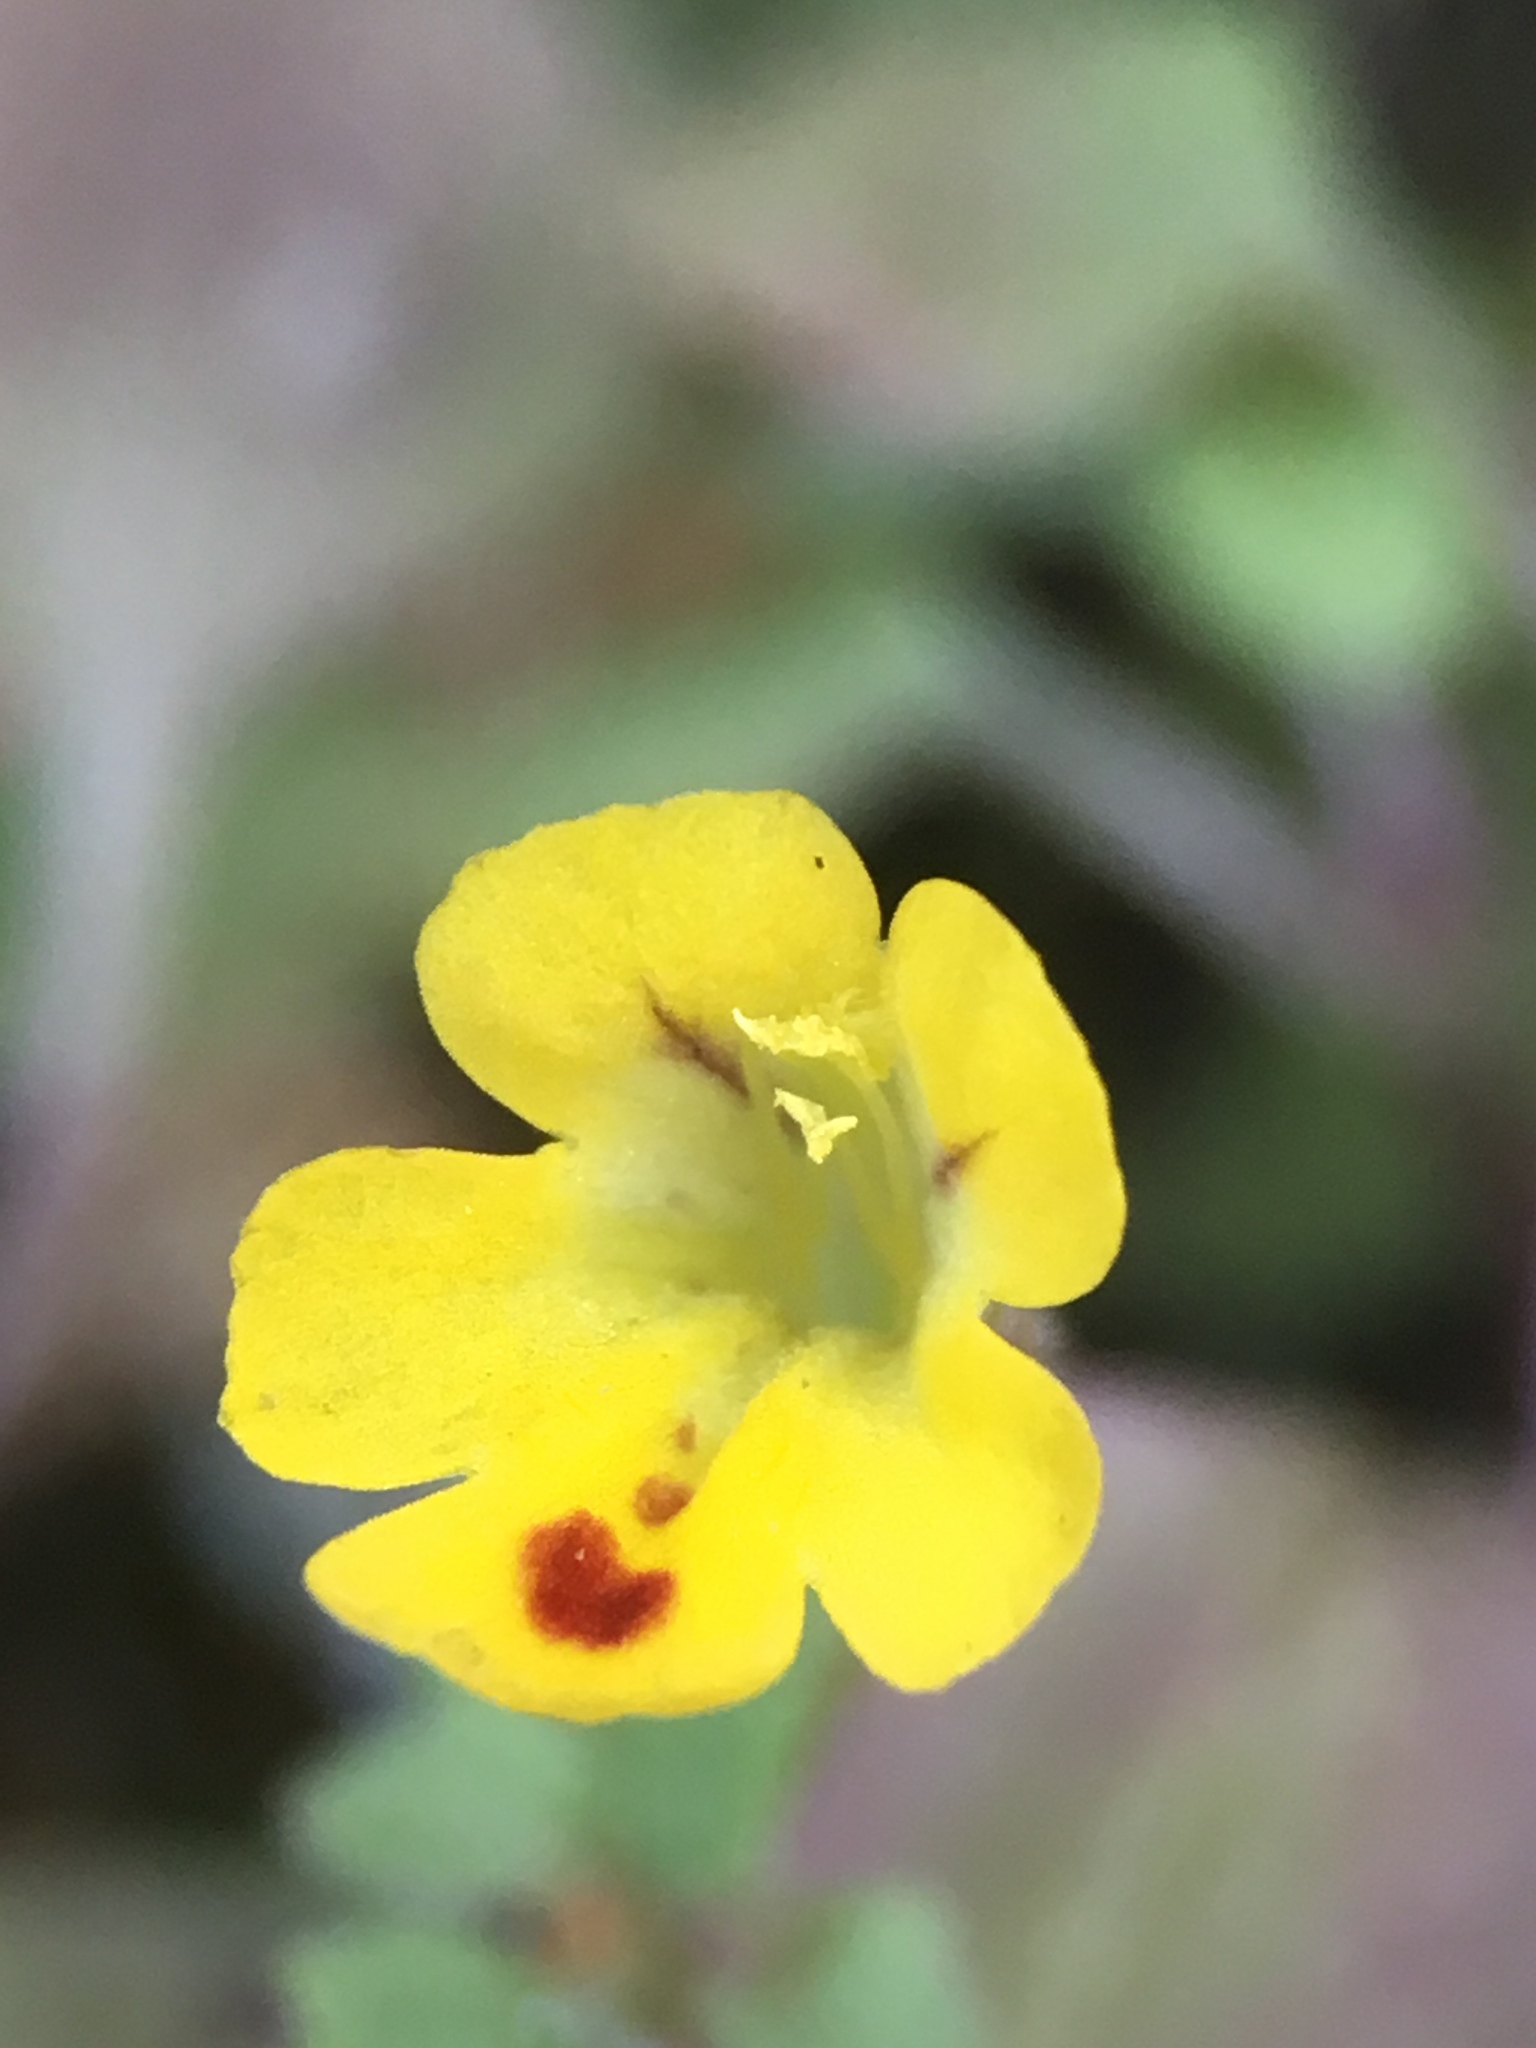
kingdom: Plantae
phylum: Tracheophyta
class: Magnoliopsida
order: Lamiales
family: Phrymaceae
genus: Erythranthe
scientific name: Erythranthe alsinoides
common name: Chickweed monkeyflower
